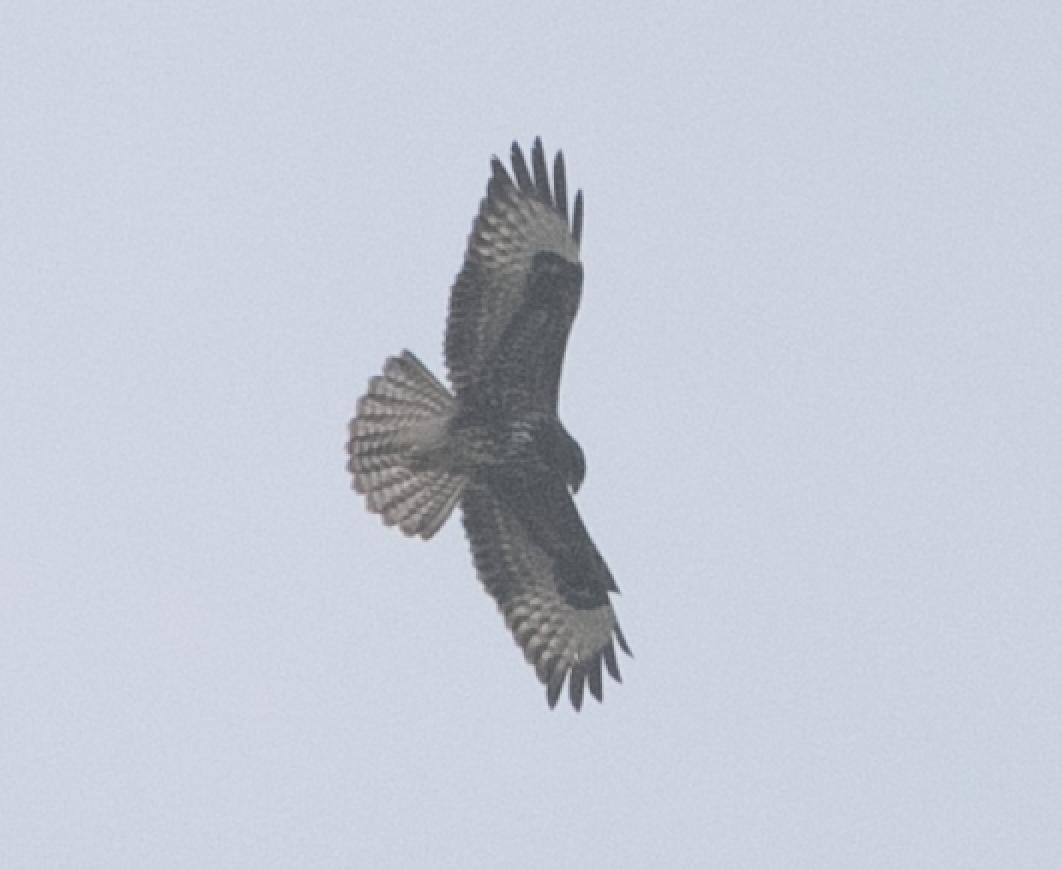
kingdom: Animalia
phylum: Chordata
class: Aves
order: Accipitriformes
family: Accipitridae
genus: Buteo
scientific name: Buteo buteo
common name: Common buzzard
